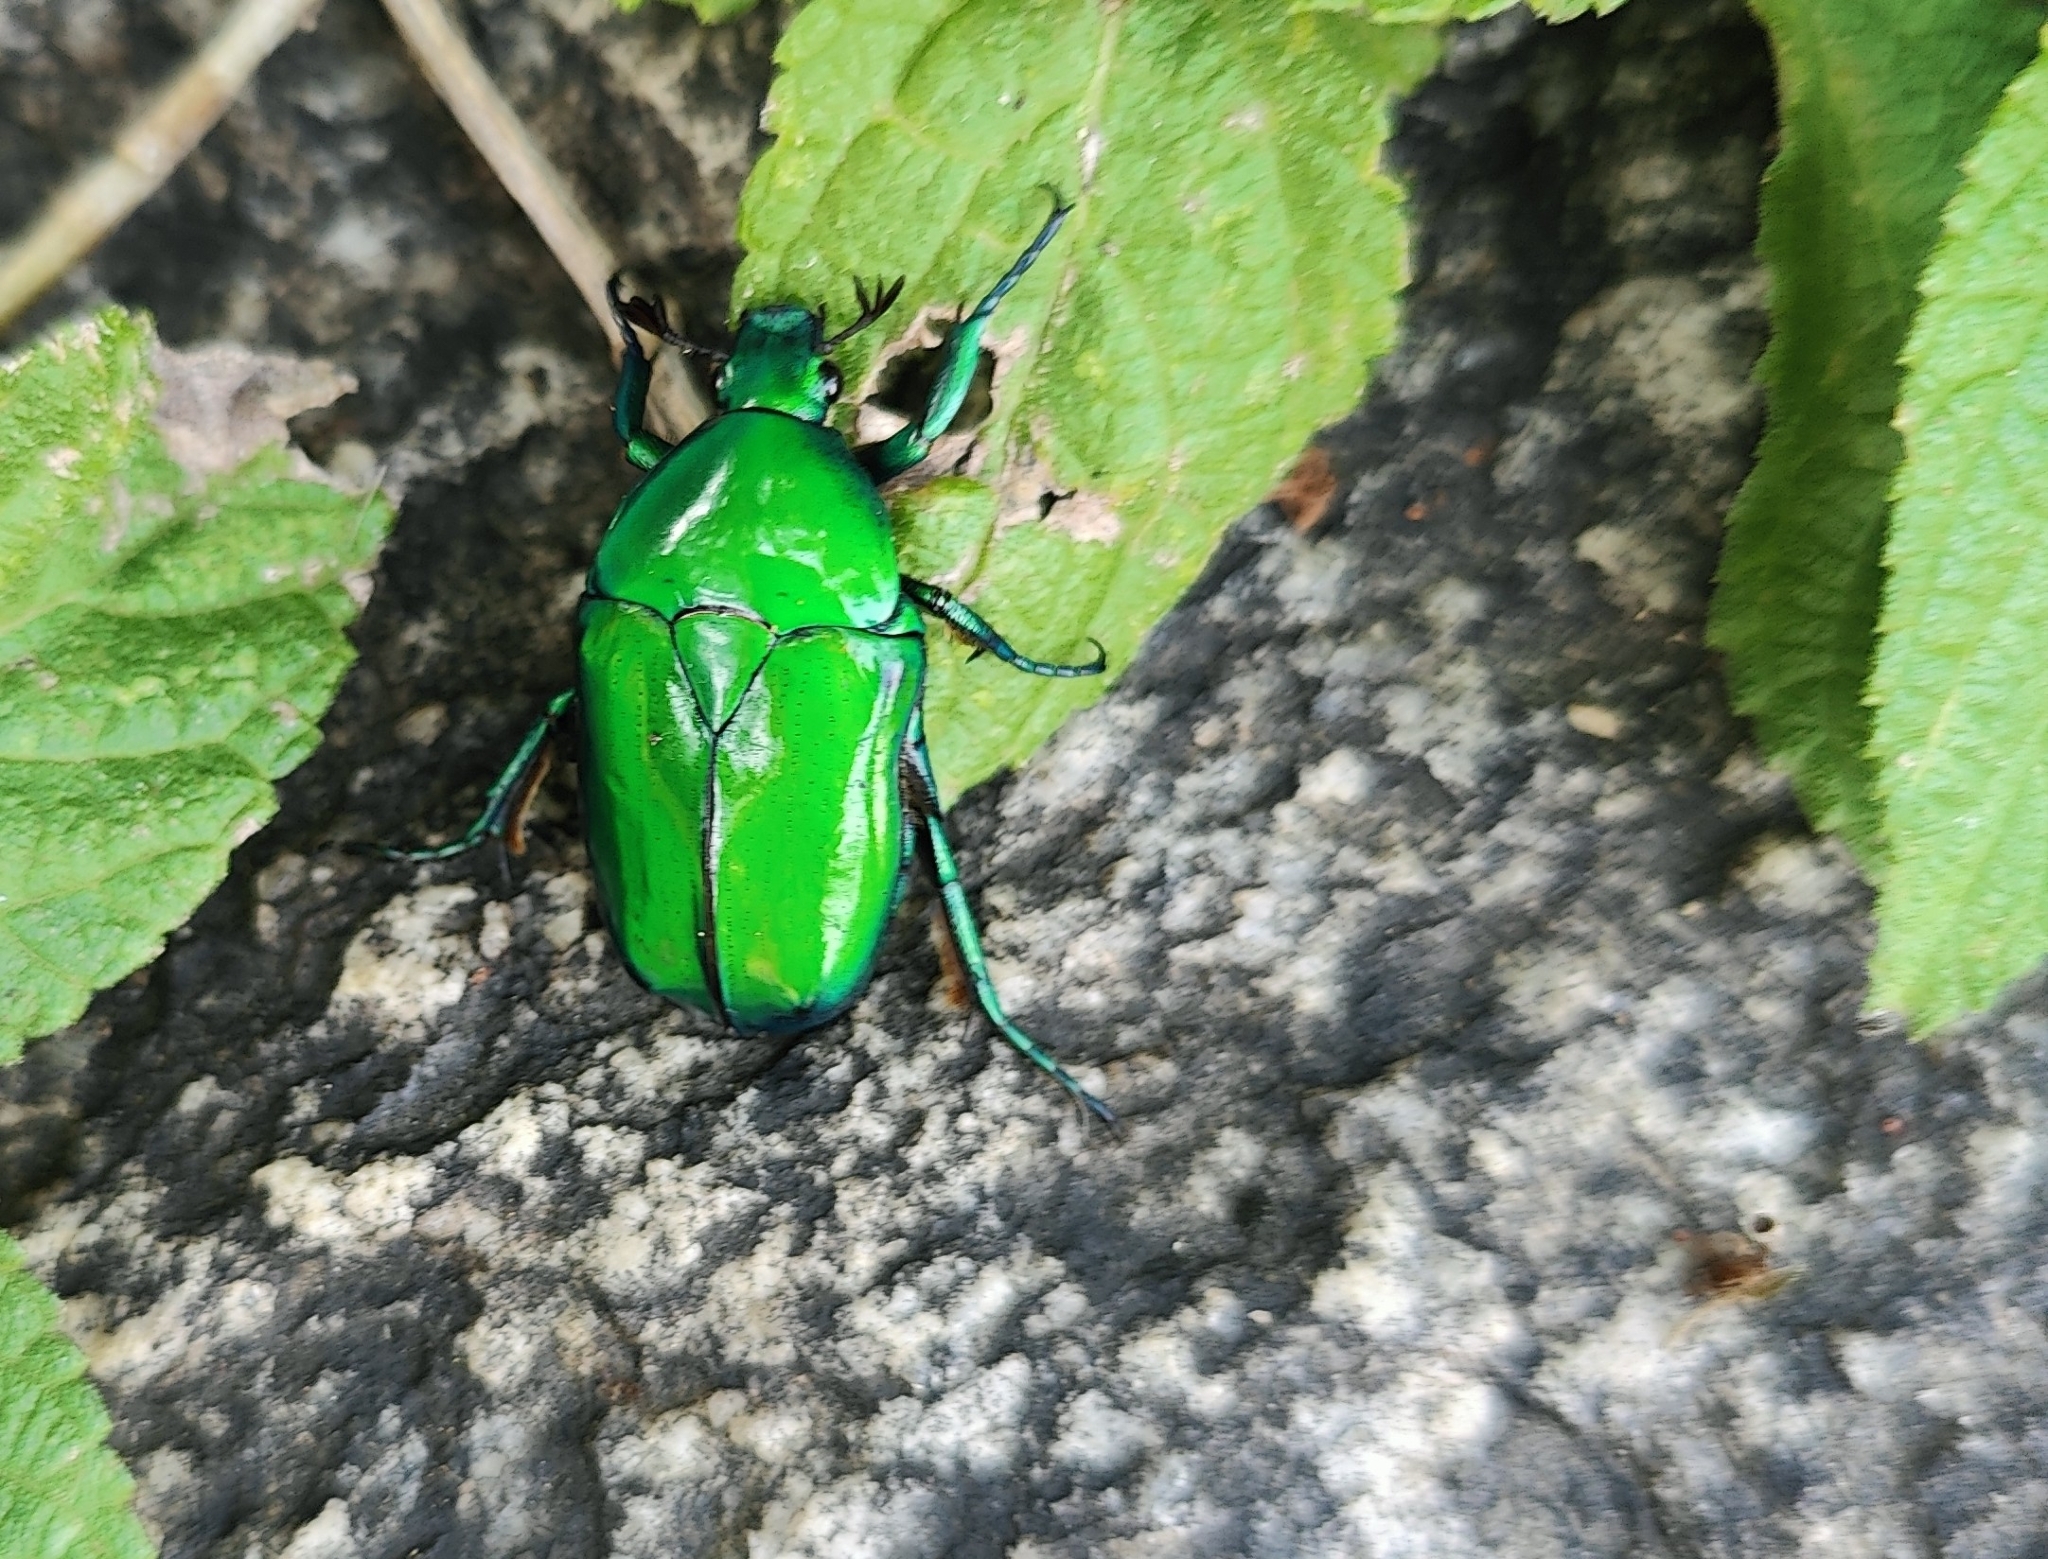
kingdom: Animalia
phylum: Arthropoda
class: Insecta
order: Coleoptera
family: Scarabaeidae
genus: Ptychodesthes
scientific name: Ptychodesthes Heterorrhina elegans
